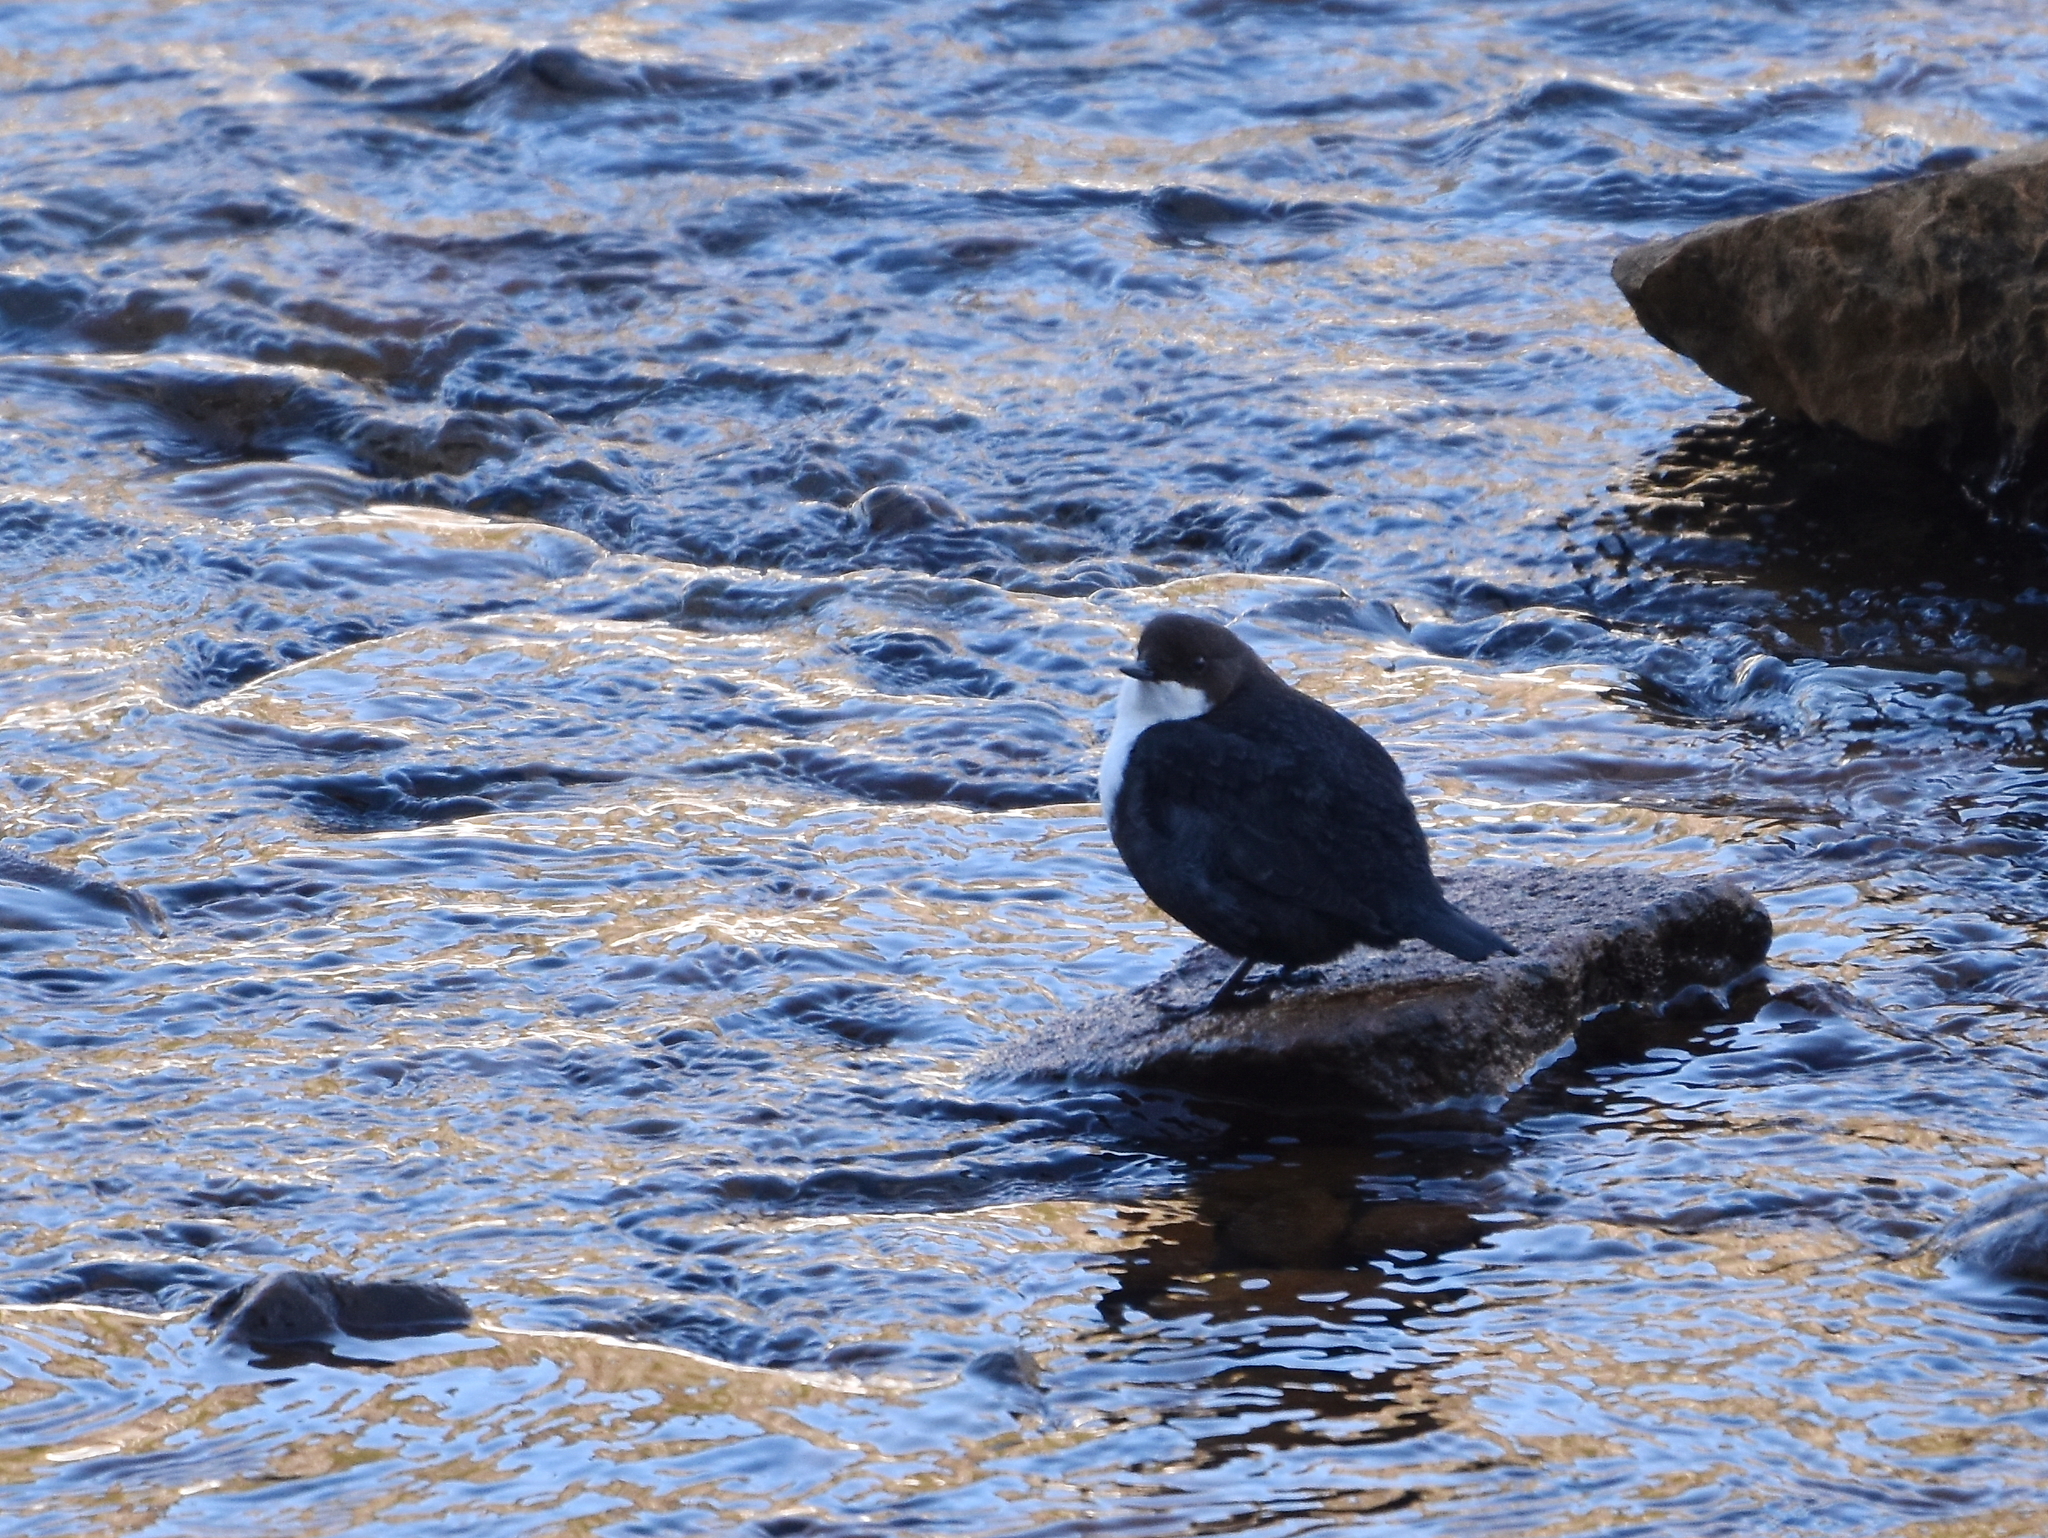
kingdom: Animalia
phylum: Chordata
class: Aves
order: Passeriformes
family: Cinclidae
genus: Cinclus
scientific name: Cinclus cinclus
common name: White-throated dipper
